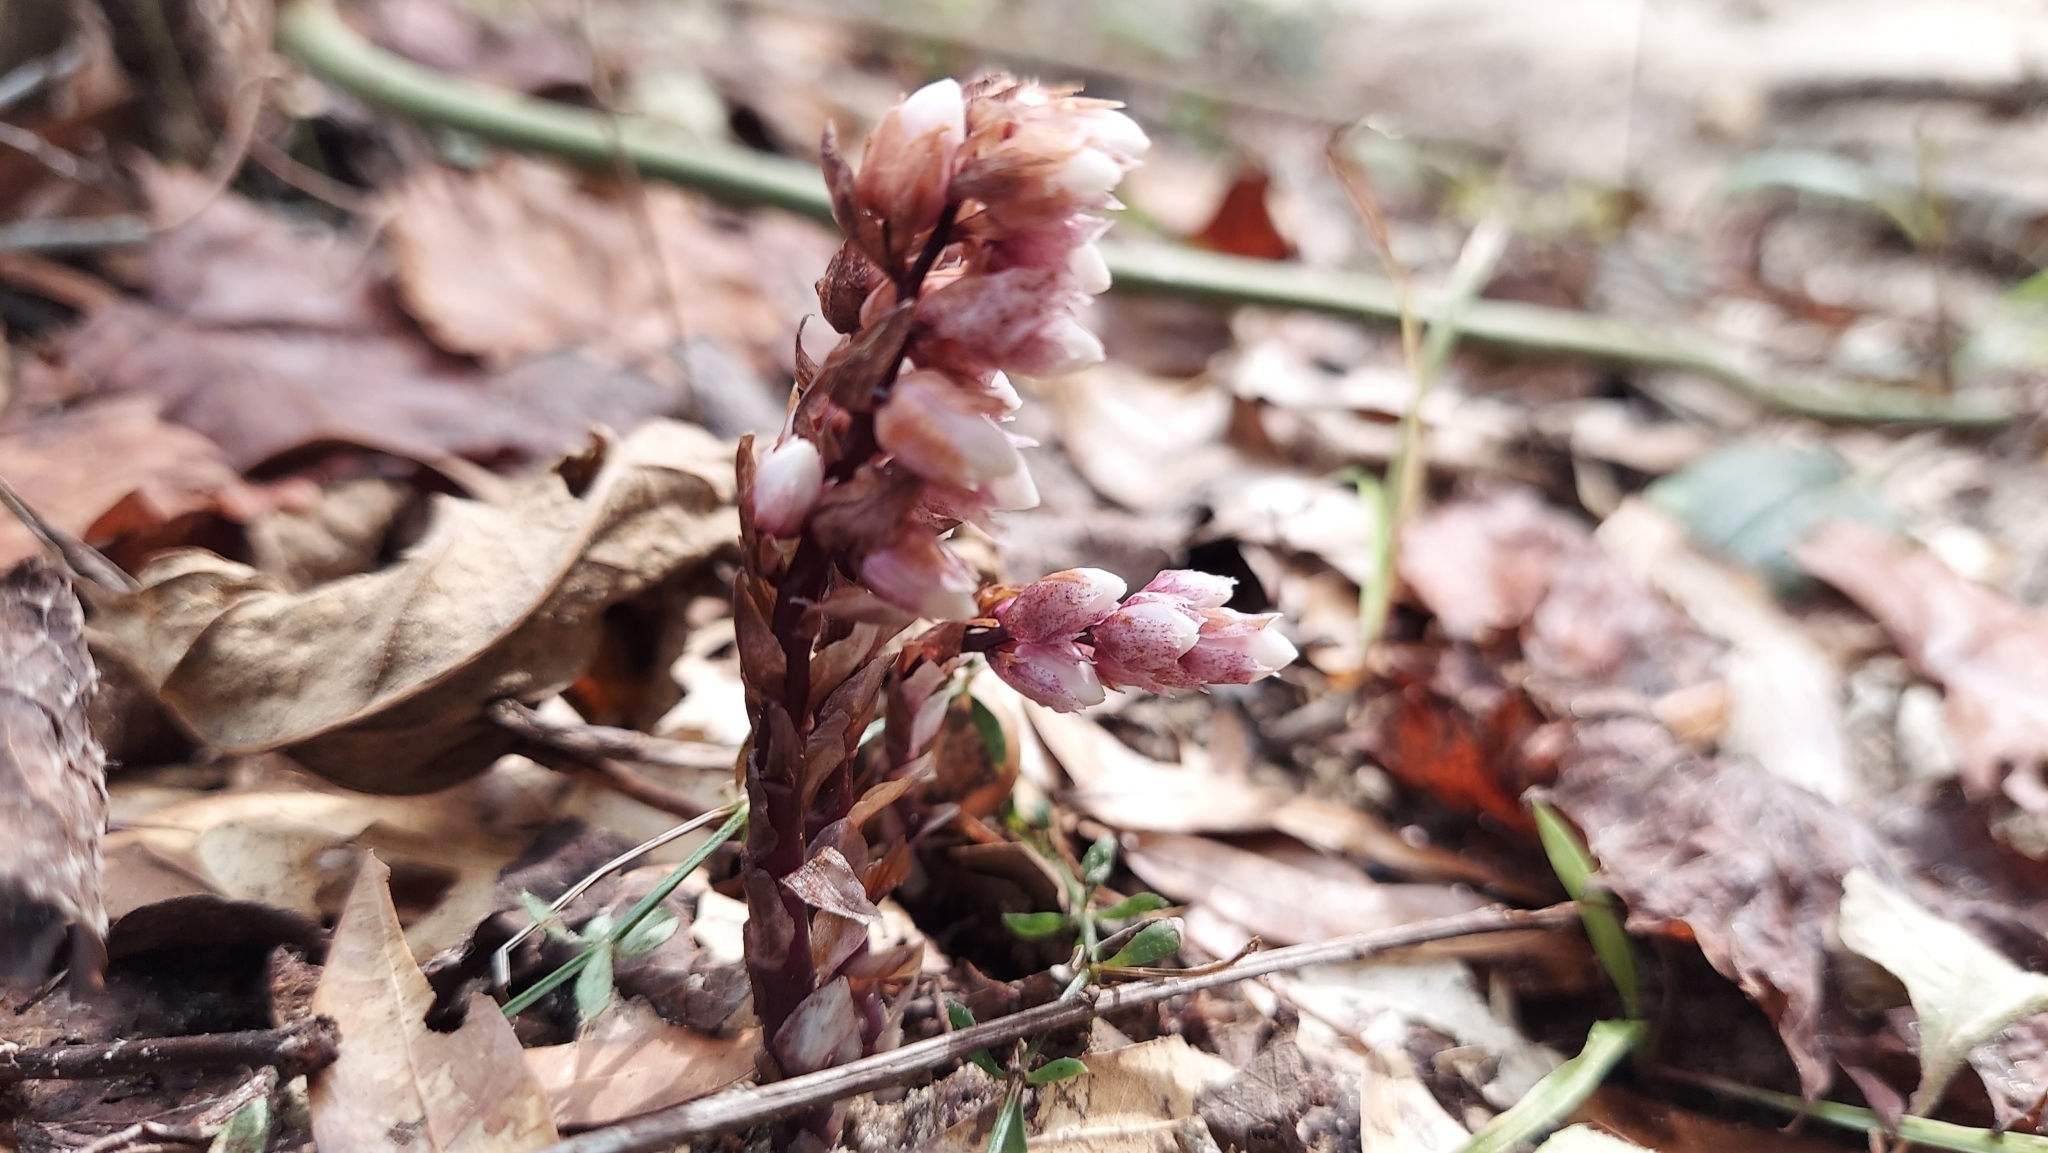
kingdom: Plantae
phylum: Tracheophyta
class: Magnoliopsida
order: Ericales
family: Ericaceae
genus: Monotropsis
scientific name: Monotropsis odorata
